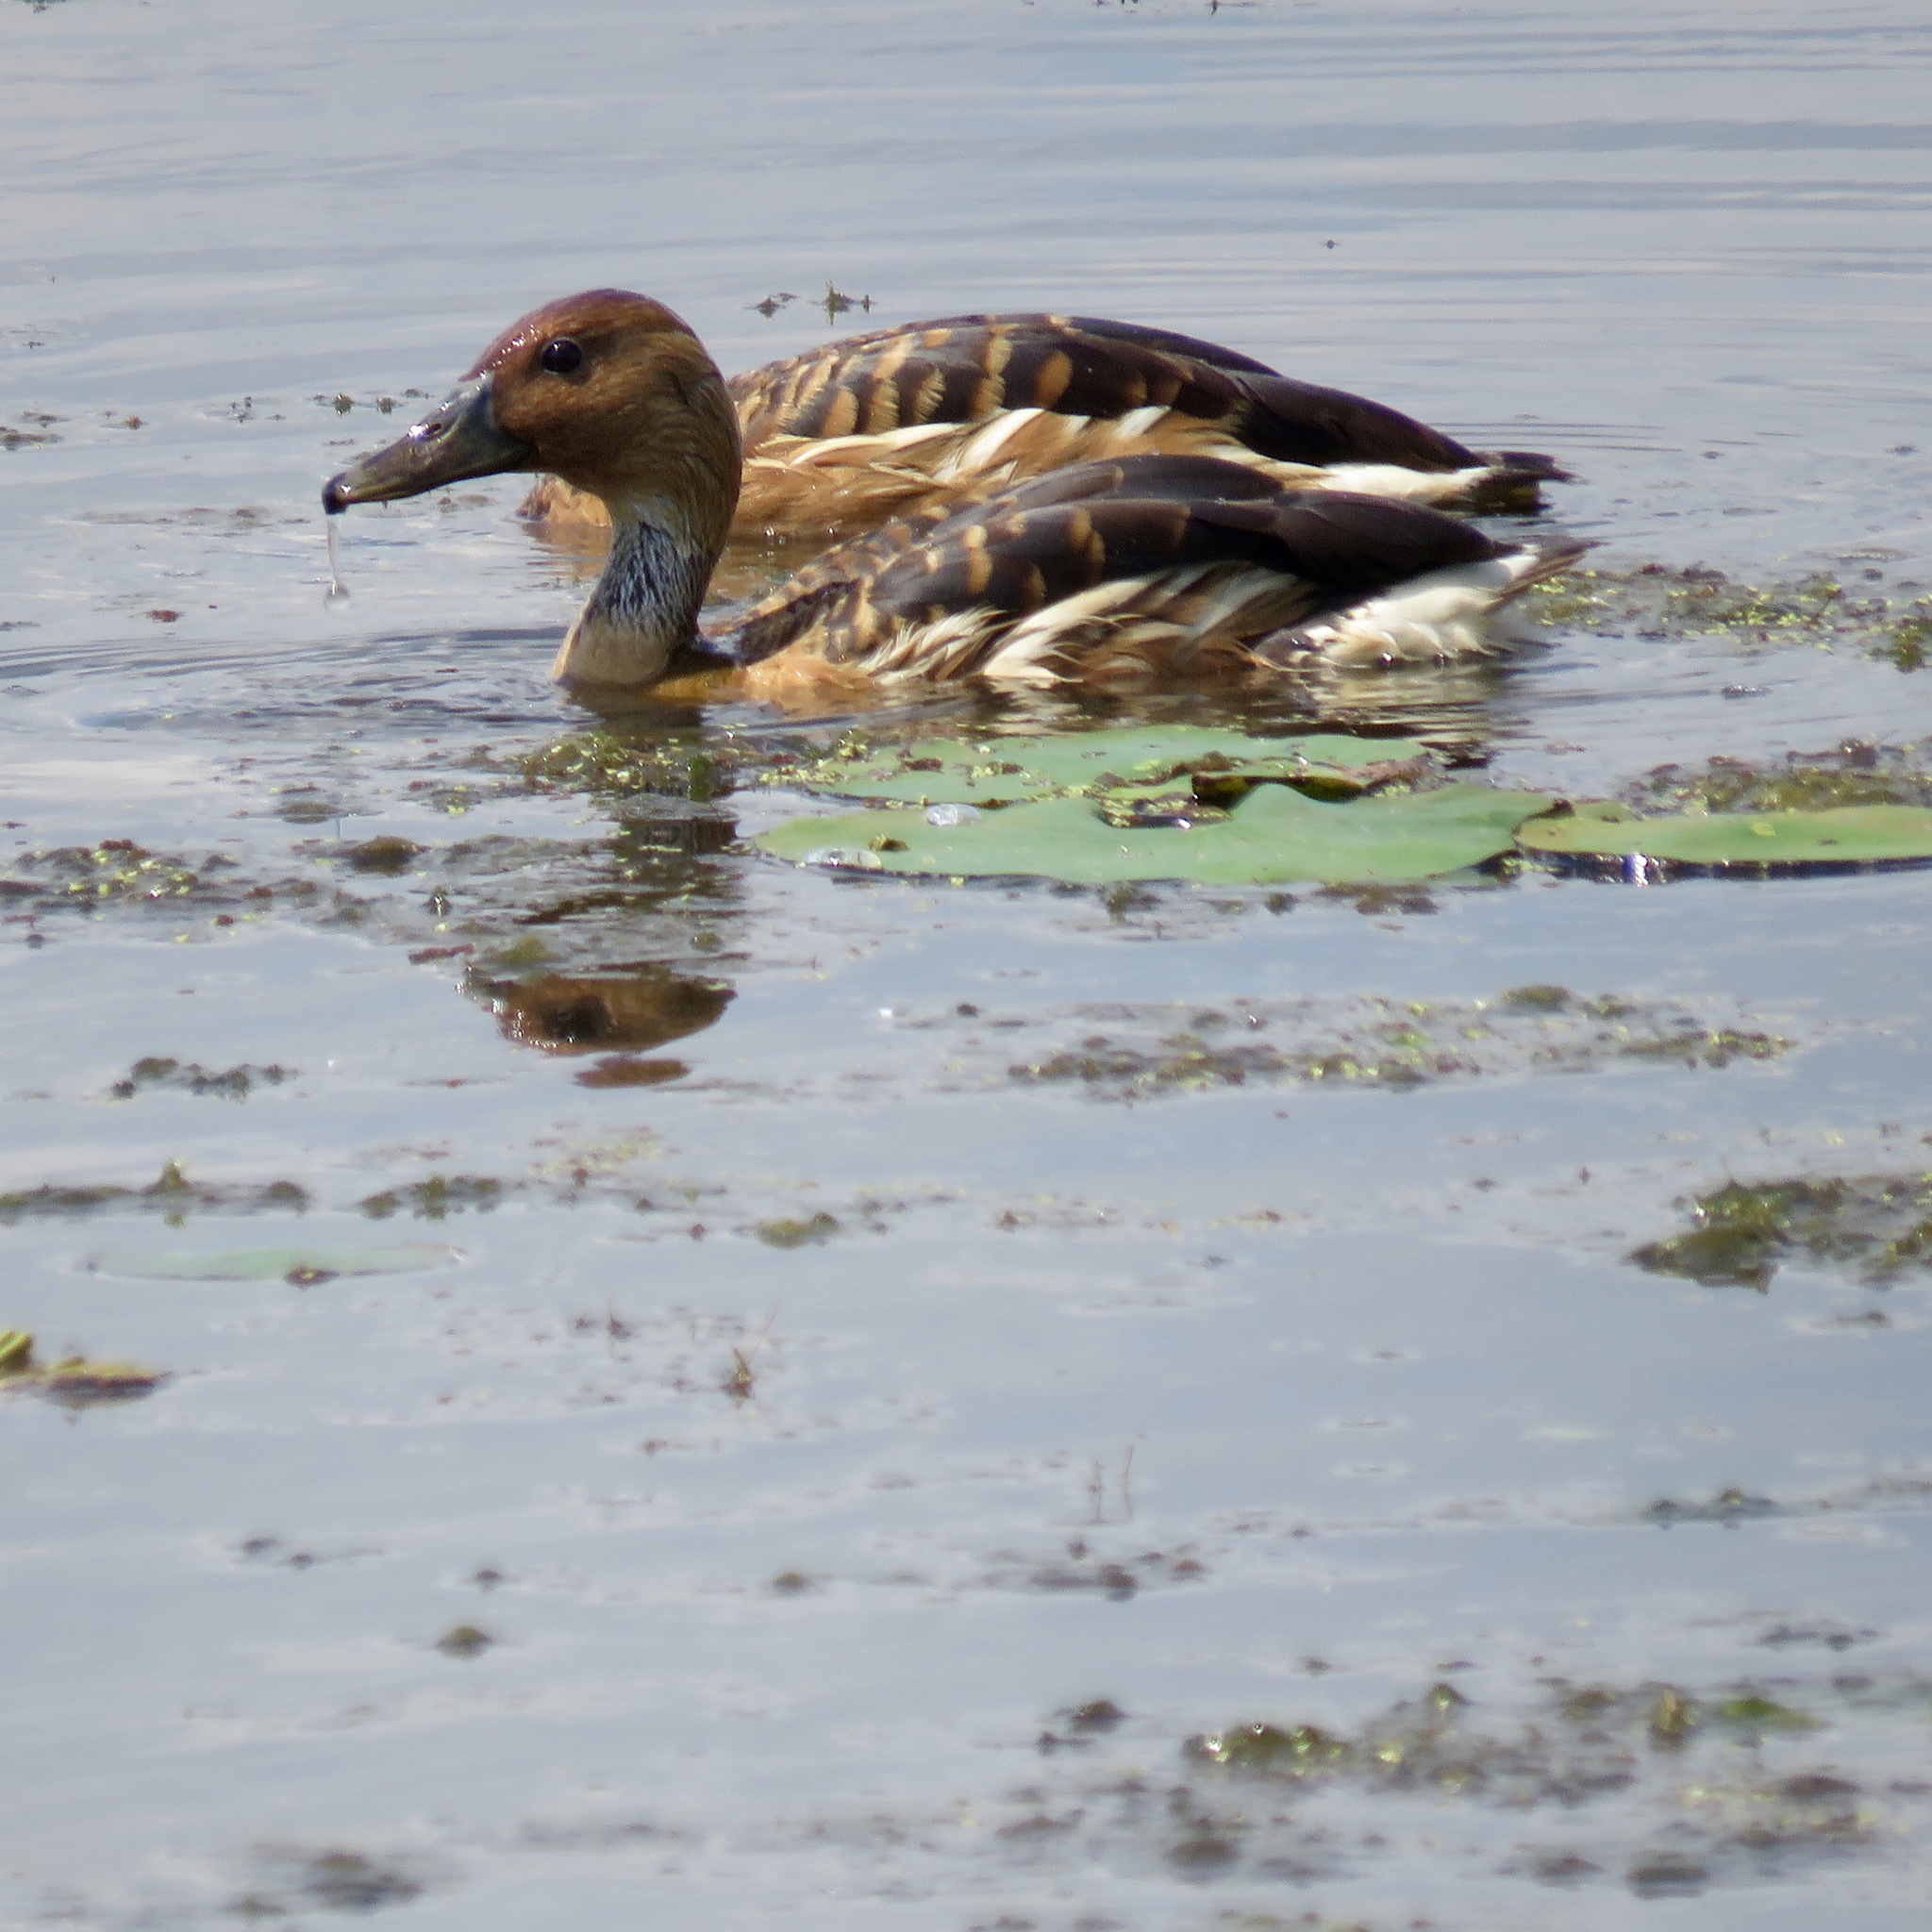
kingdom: Animalia
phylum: Chordata
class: Aves
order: Anseriformes
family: Anatidae
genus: Dendrocygna
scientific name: Dendrocygna bicolor
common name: Fulvous whistling duck
